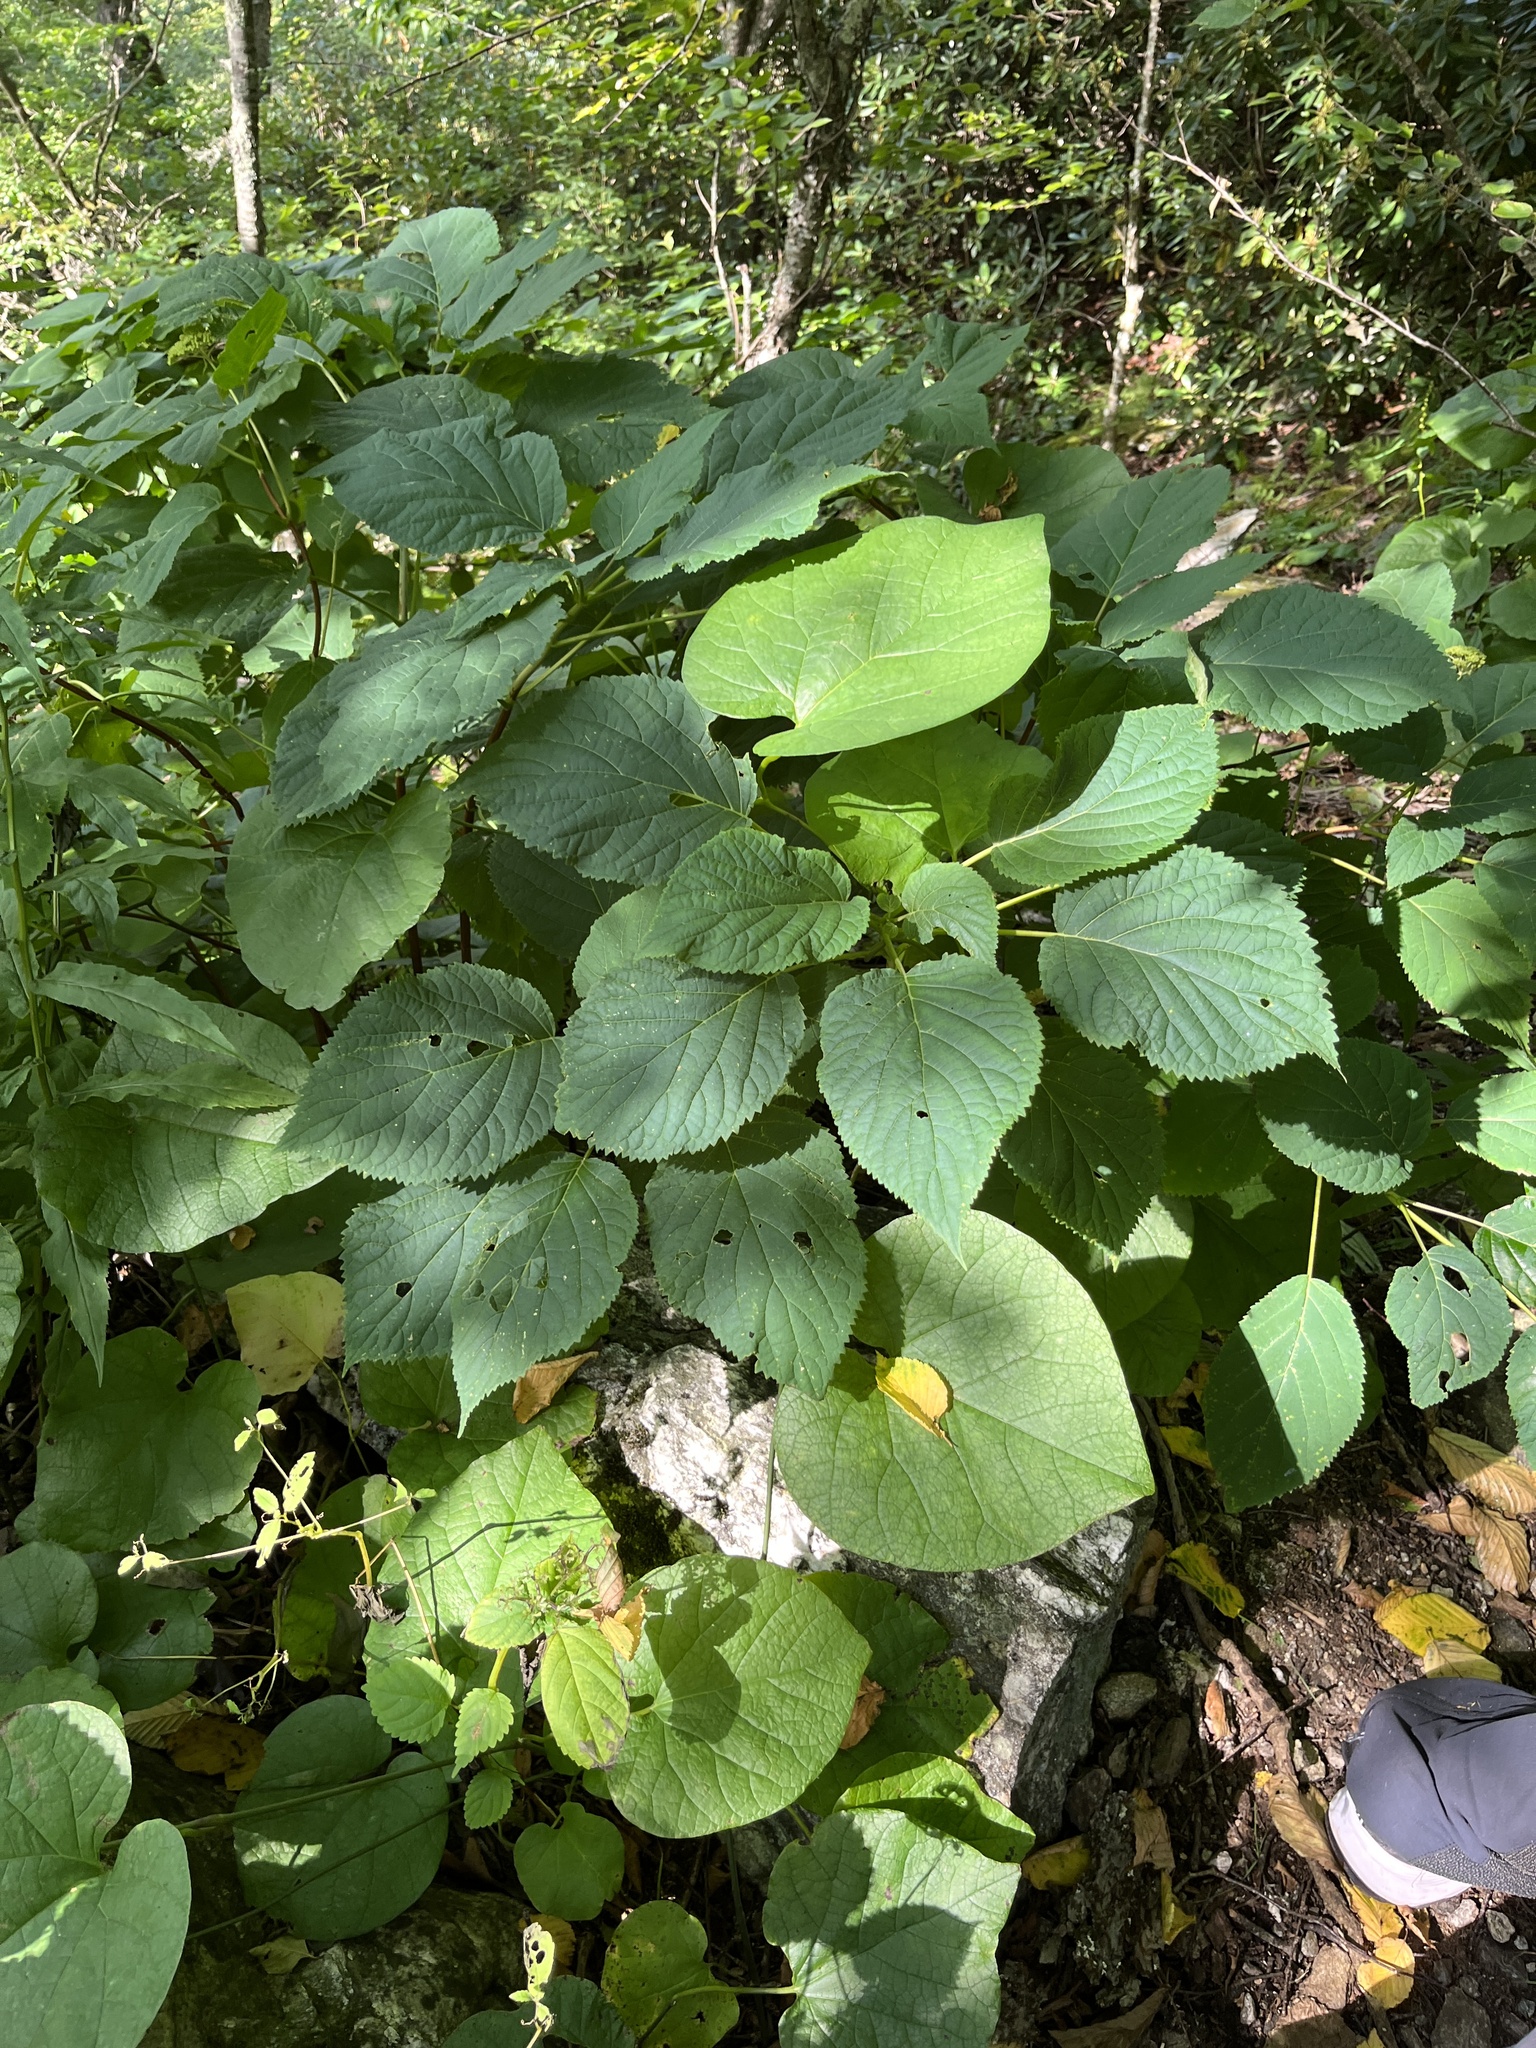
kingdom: Plantae
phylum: Tracheophyta
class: Magnoliopsida
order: Piperales
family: Aristolochiaceae
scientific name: Aristolochiaceae
